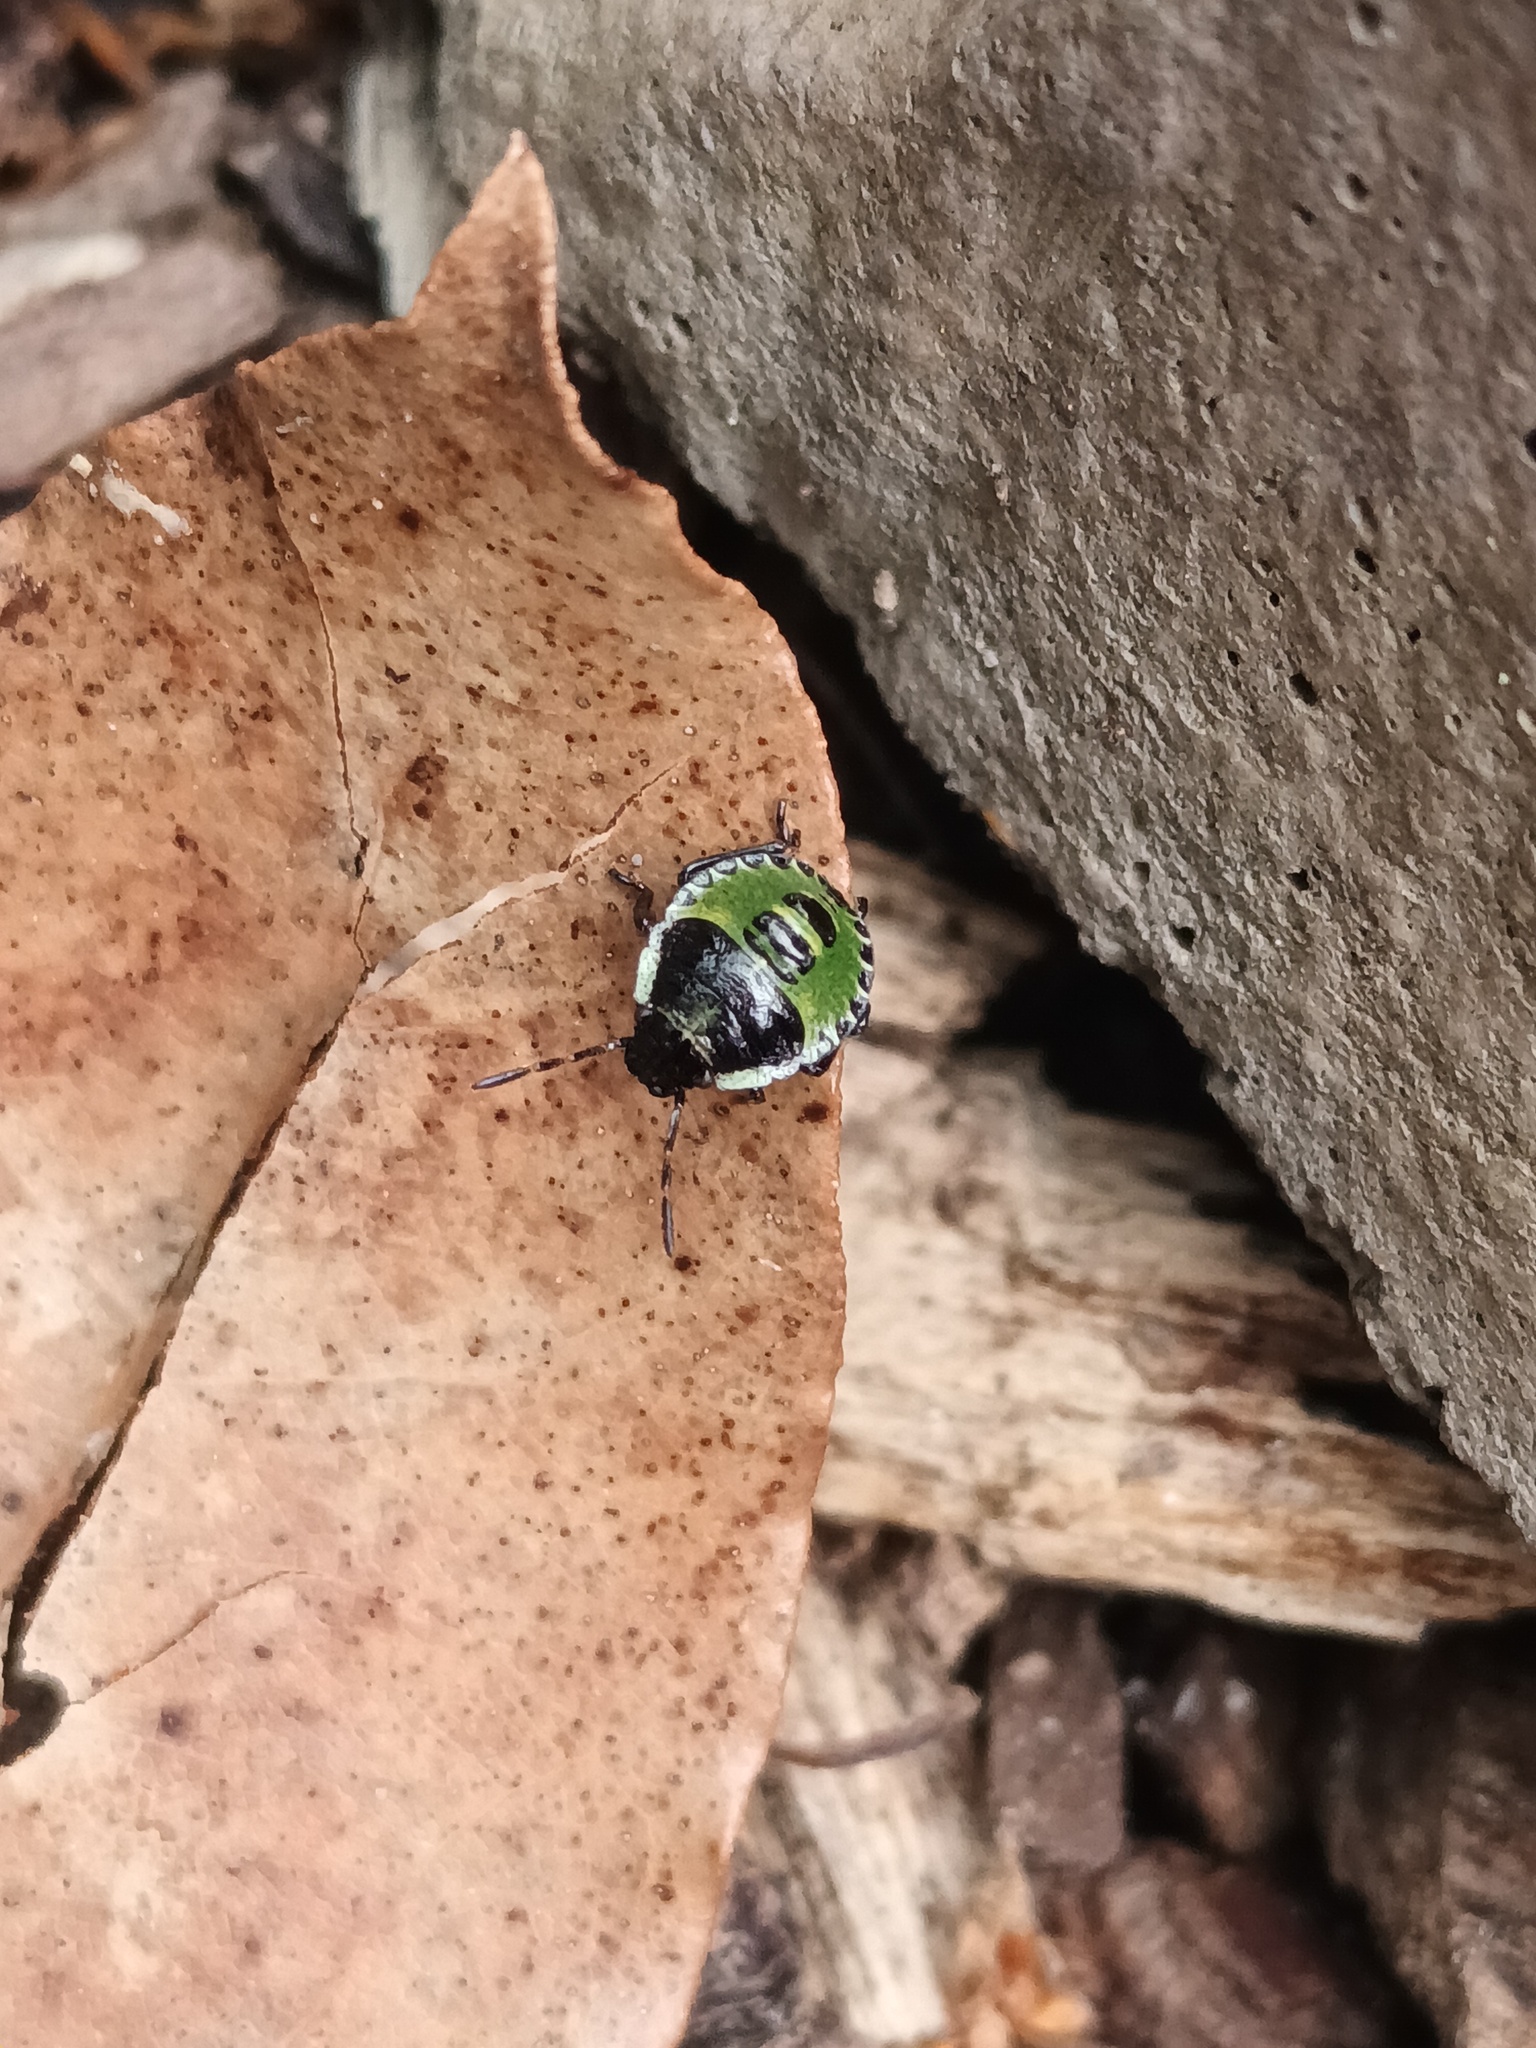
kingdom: Animalia
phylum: Arthropoda
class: Insecta
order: Hemiptera
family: Pentatomidae
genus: Palomena
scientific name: Palomena prasina
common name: Green shieldbug
